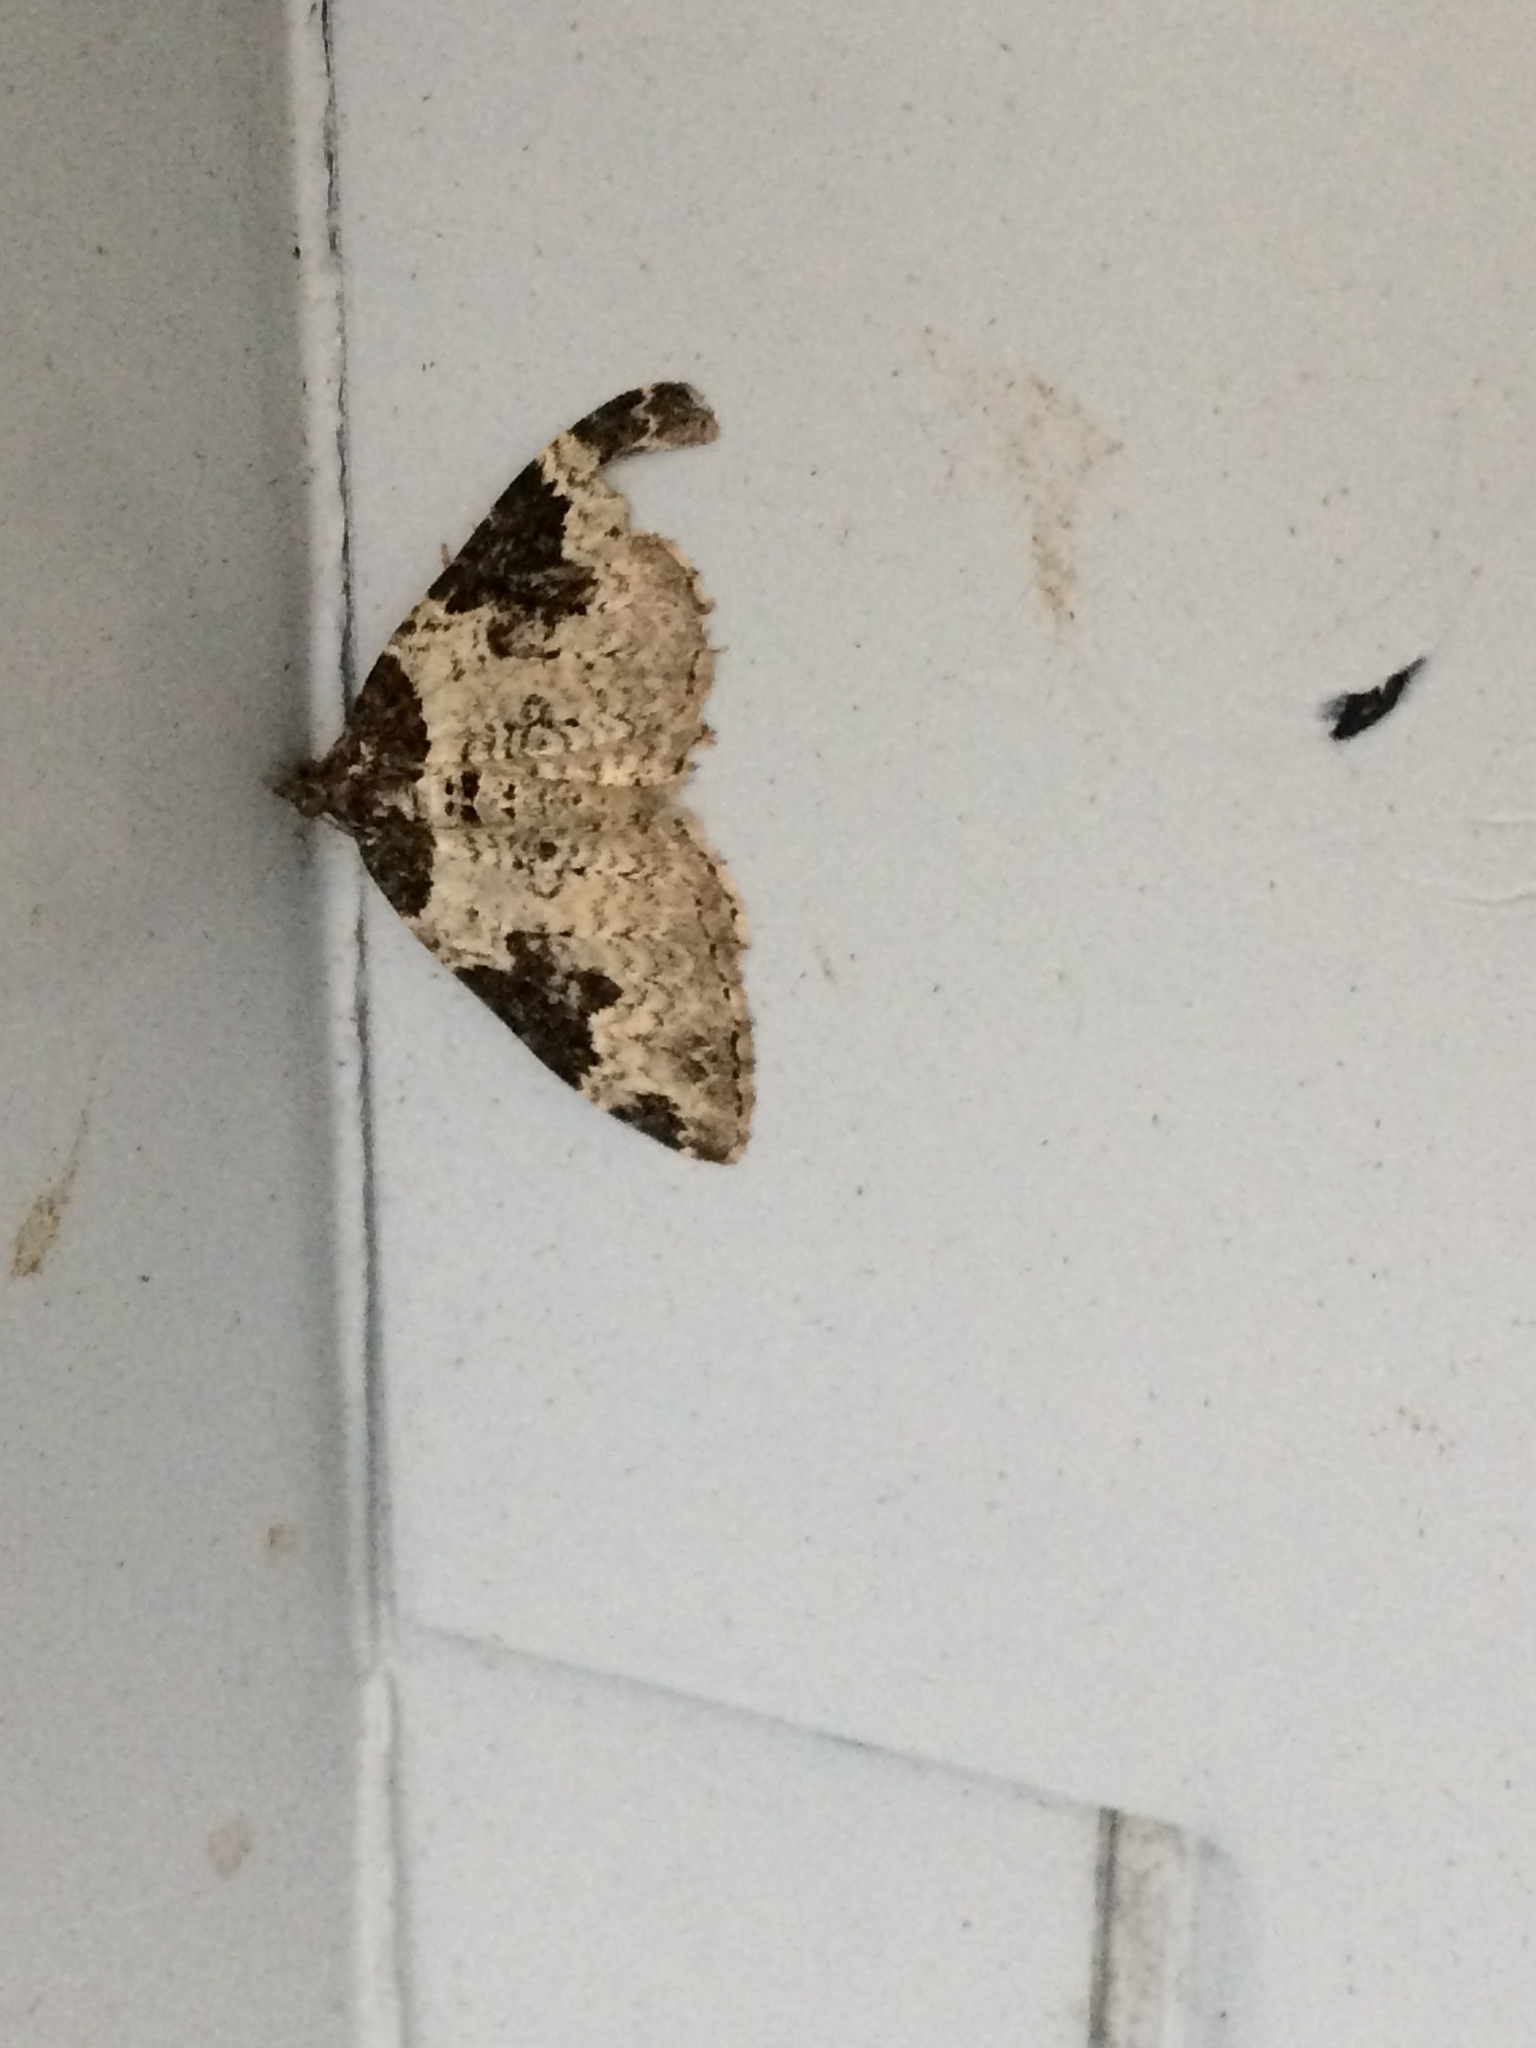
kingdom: Animalia
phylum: Arthropoda
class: Insecta
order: Lepidoptera
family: Geometridae
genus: Xanthorhoe
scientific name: Xanthorhoe fluctuata
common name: Garden carpet
